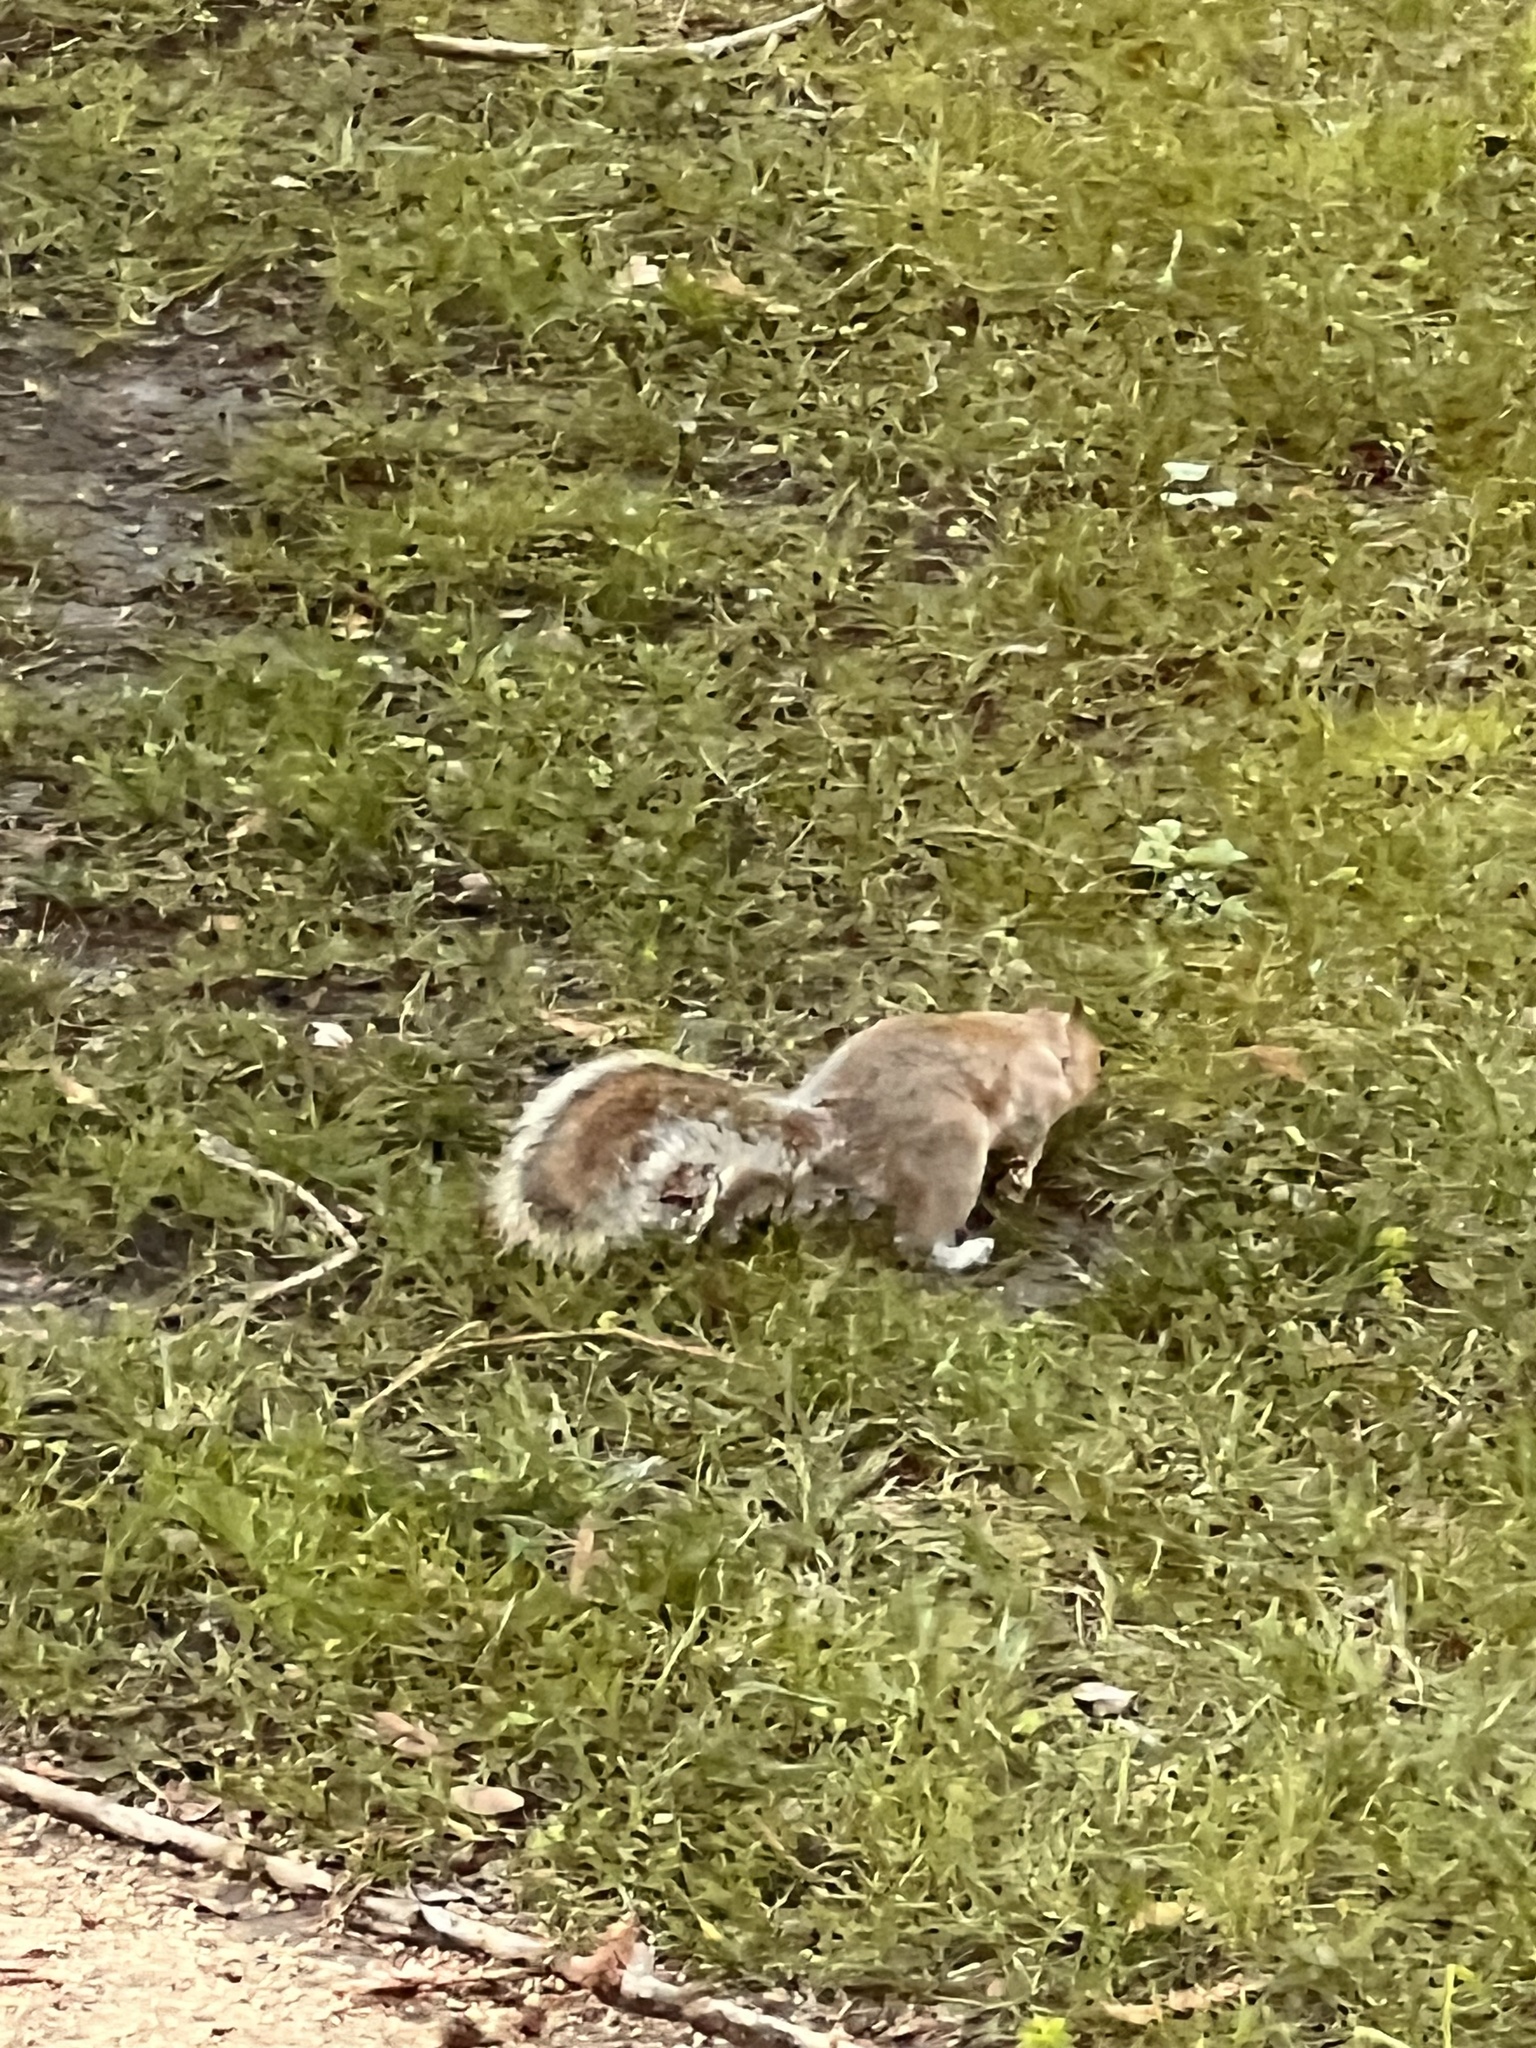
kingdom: Animalia
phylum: Chordata
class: Mammalia
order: Rodentia
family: Sciuridae
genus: Sciurus
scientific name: Sciurus carolinensis
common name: Eastern gray squirrel
